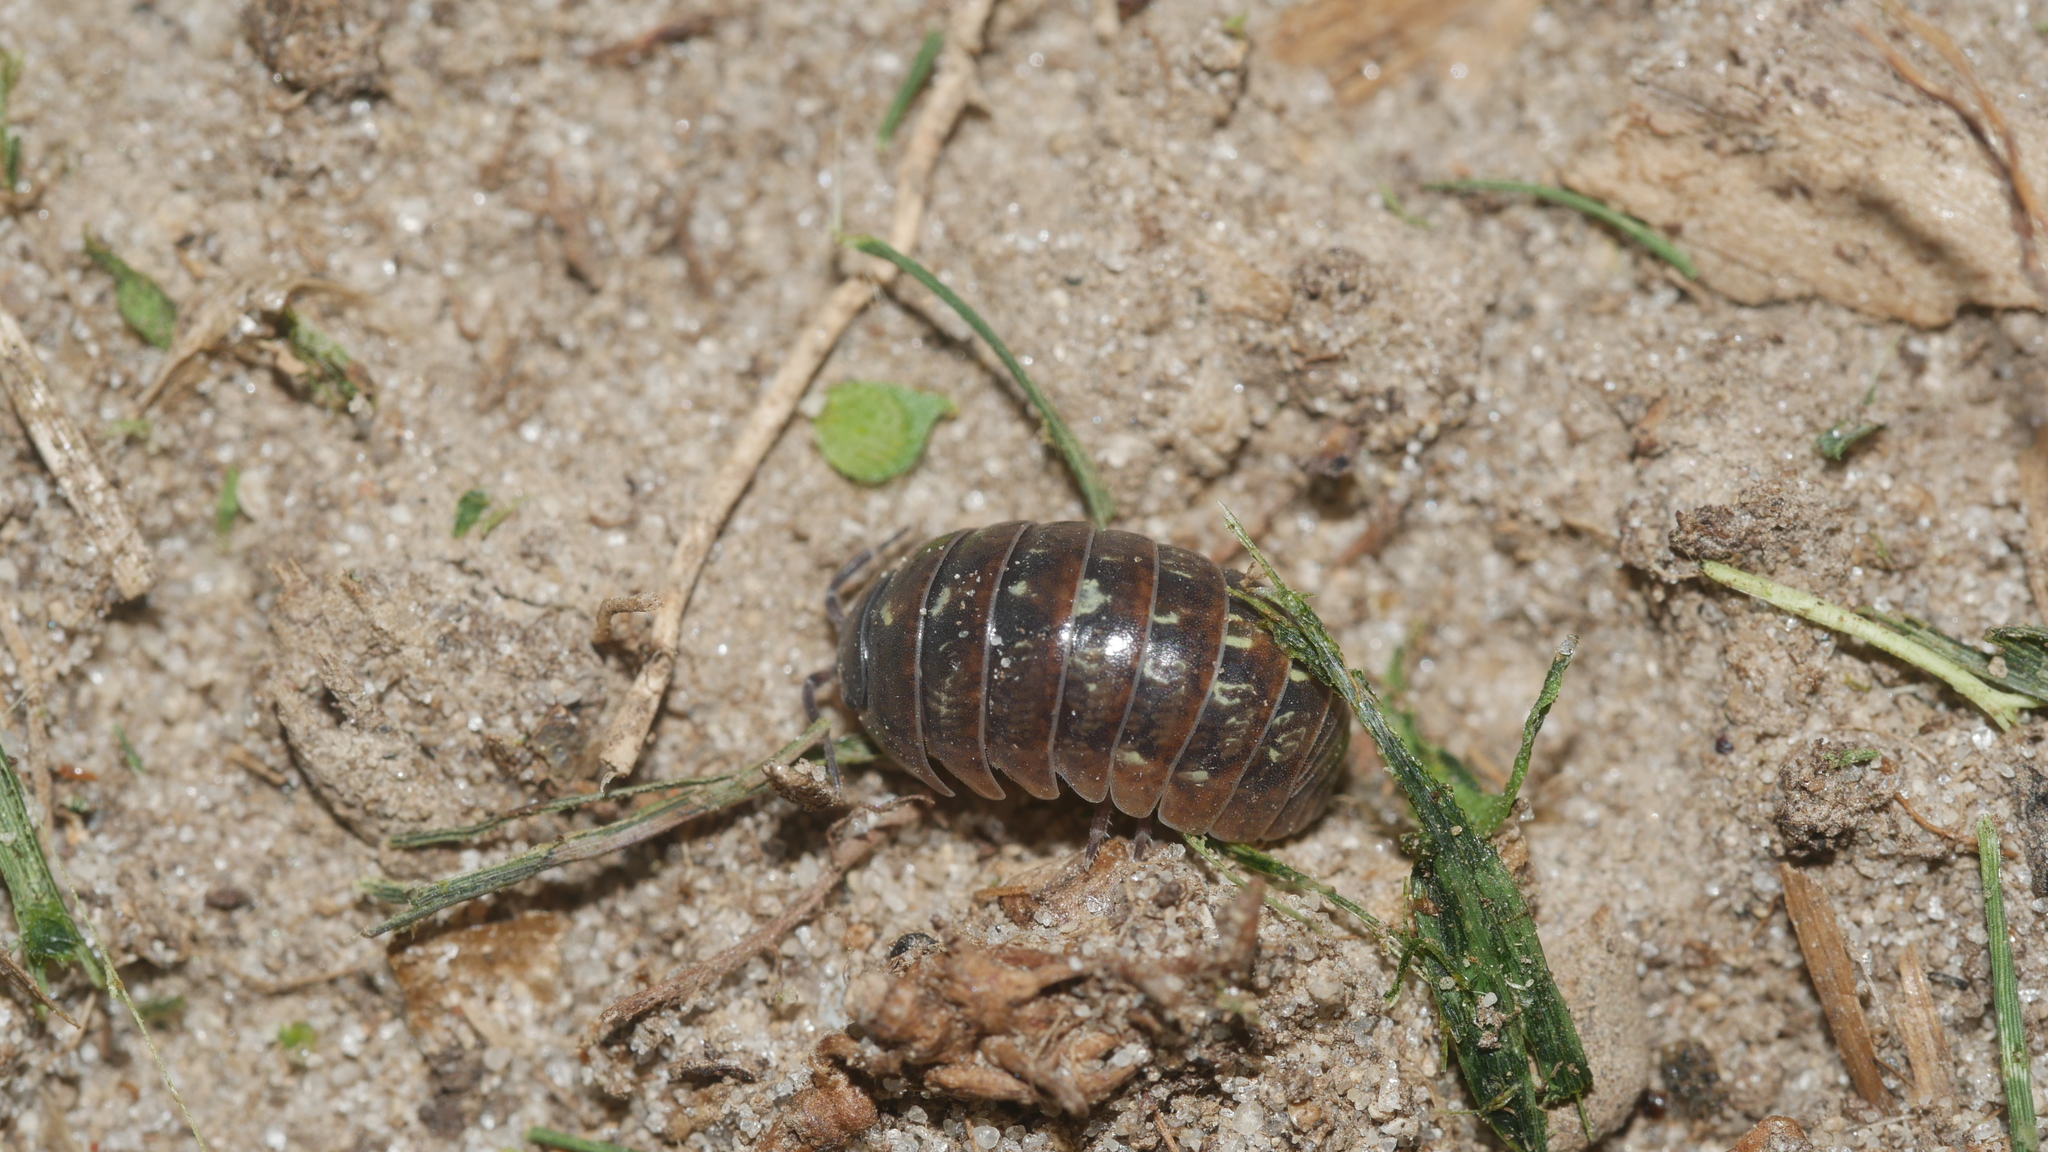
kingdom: Animalia
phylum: Arthropoda
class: Malacostraca
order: Isopoda
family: Armadillidiidae
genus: Armadillidium
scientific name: Armadillidium vulgare
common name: Common pill woodlouse
